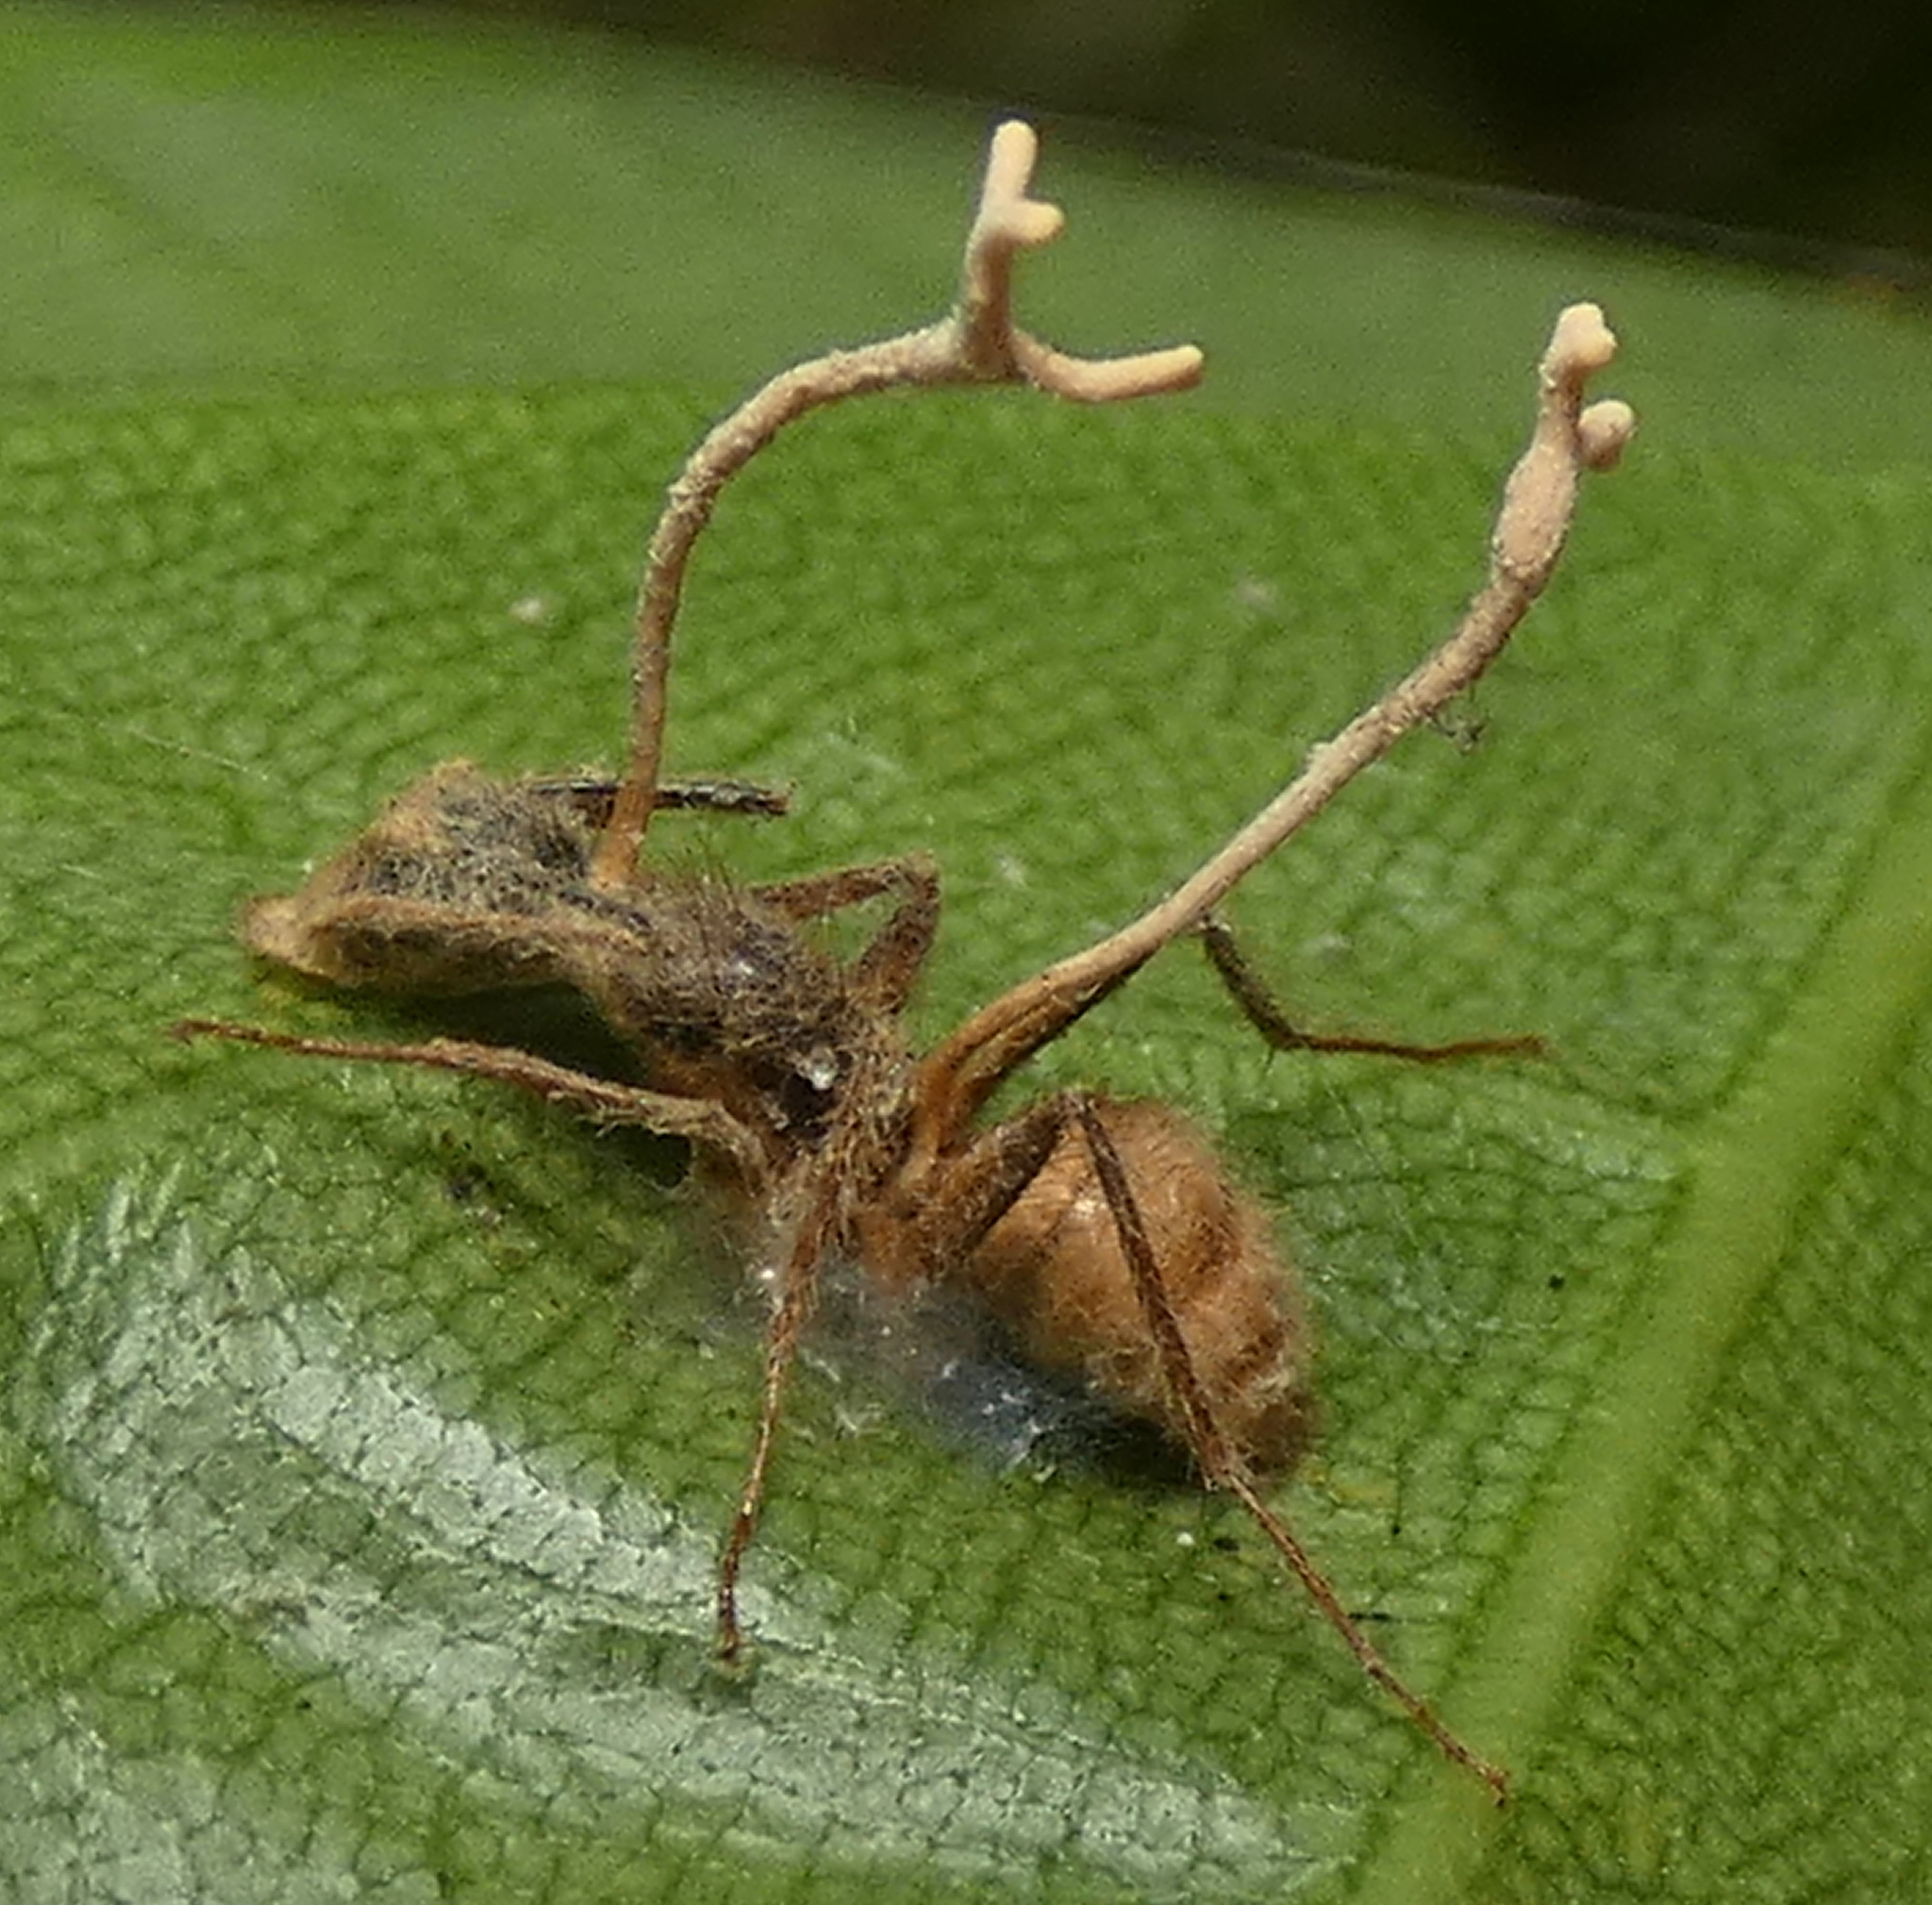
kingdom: Animalia
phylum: Arthropoda
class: Insecta
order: Hymenoptera
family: Formicidae
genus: Camponotus
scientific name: Camponotus atriceps
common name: Florida carpenter ant
